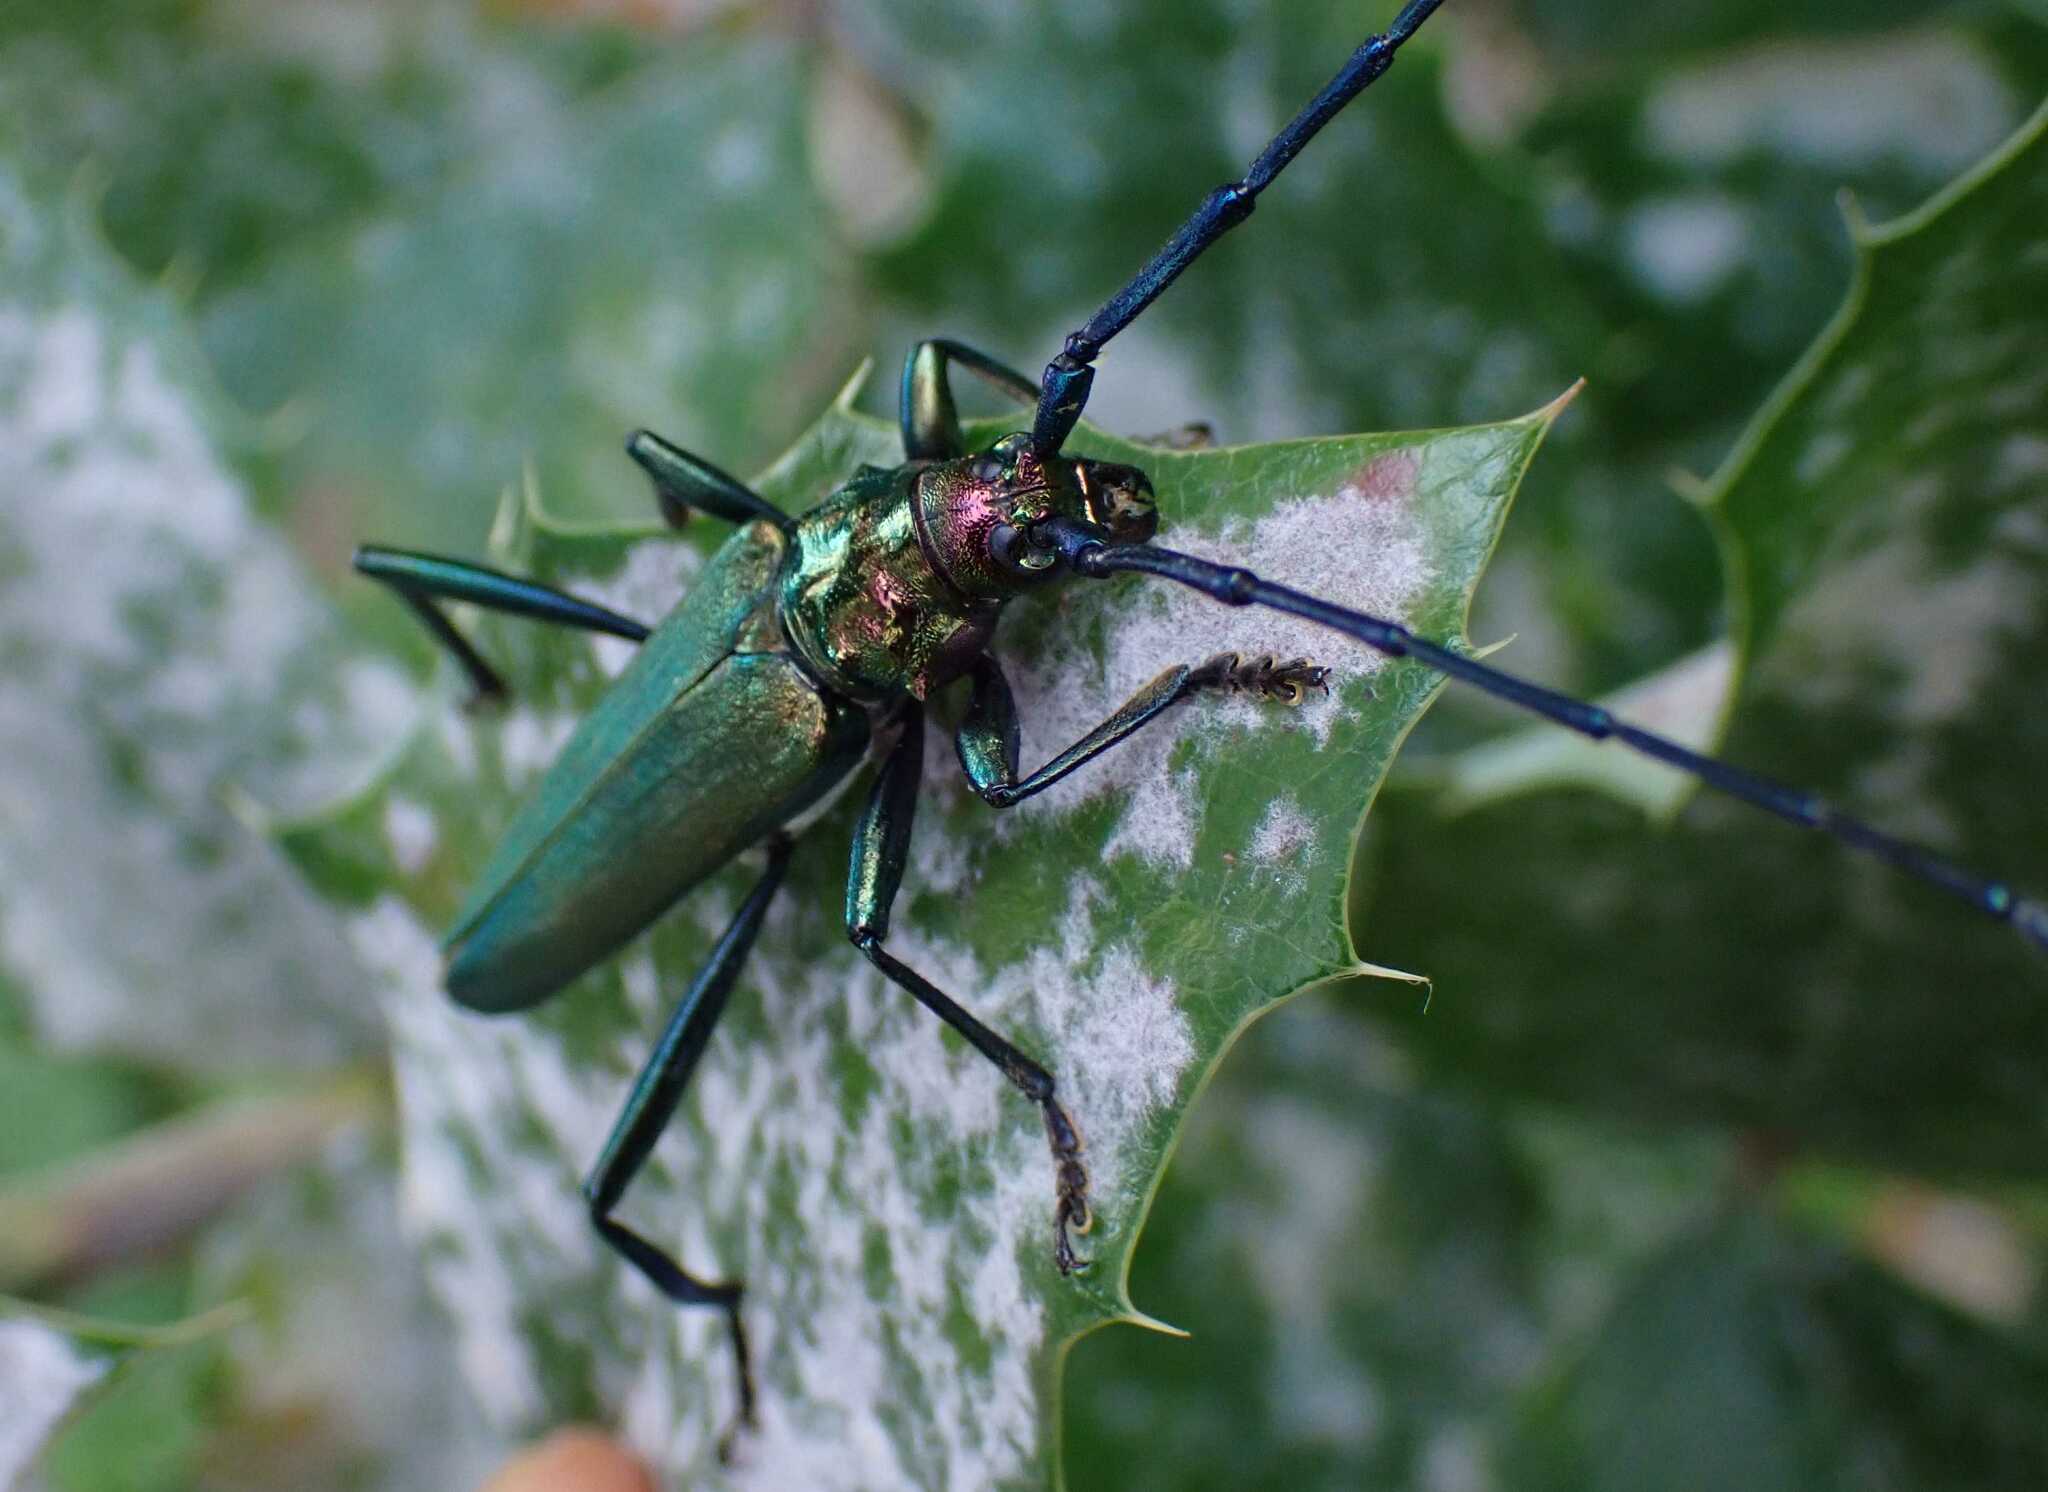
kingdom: Animalia
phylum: Arthropoda
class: Insecta
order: Coleoptera
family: Cerambycidae
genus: Aromia
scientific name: Aromia moschata
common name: Musk beetle
